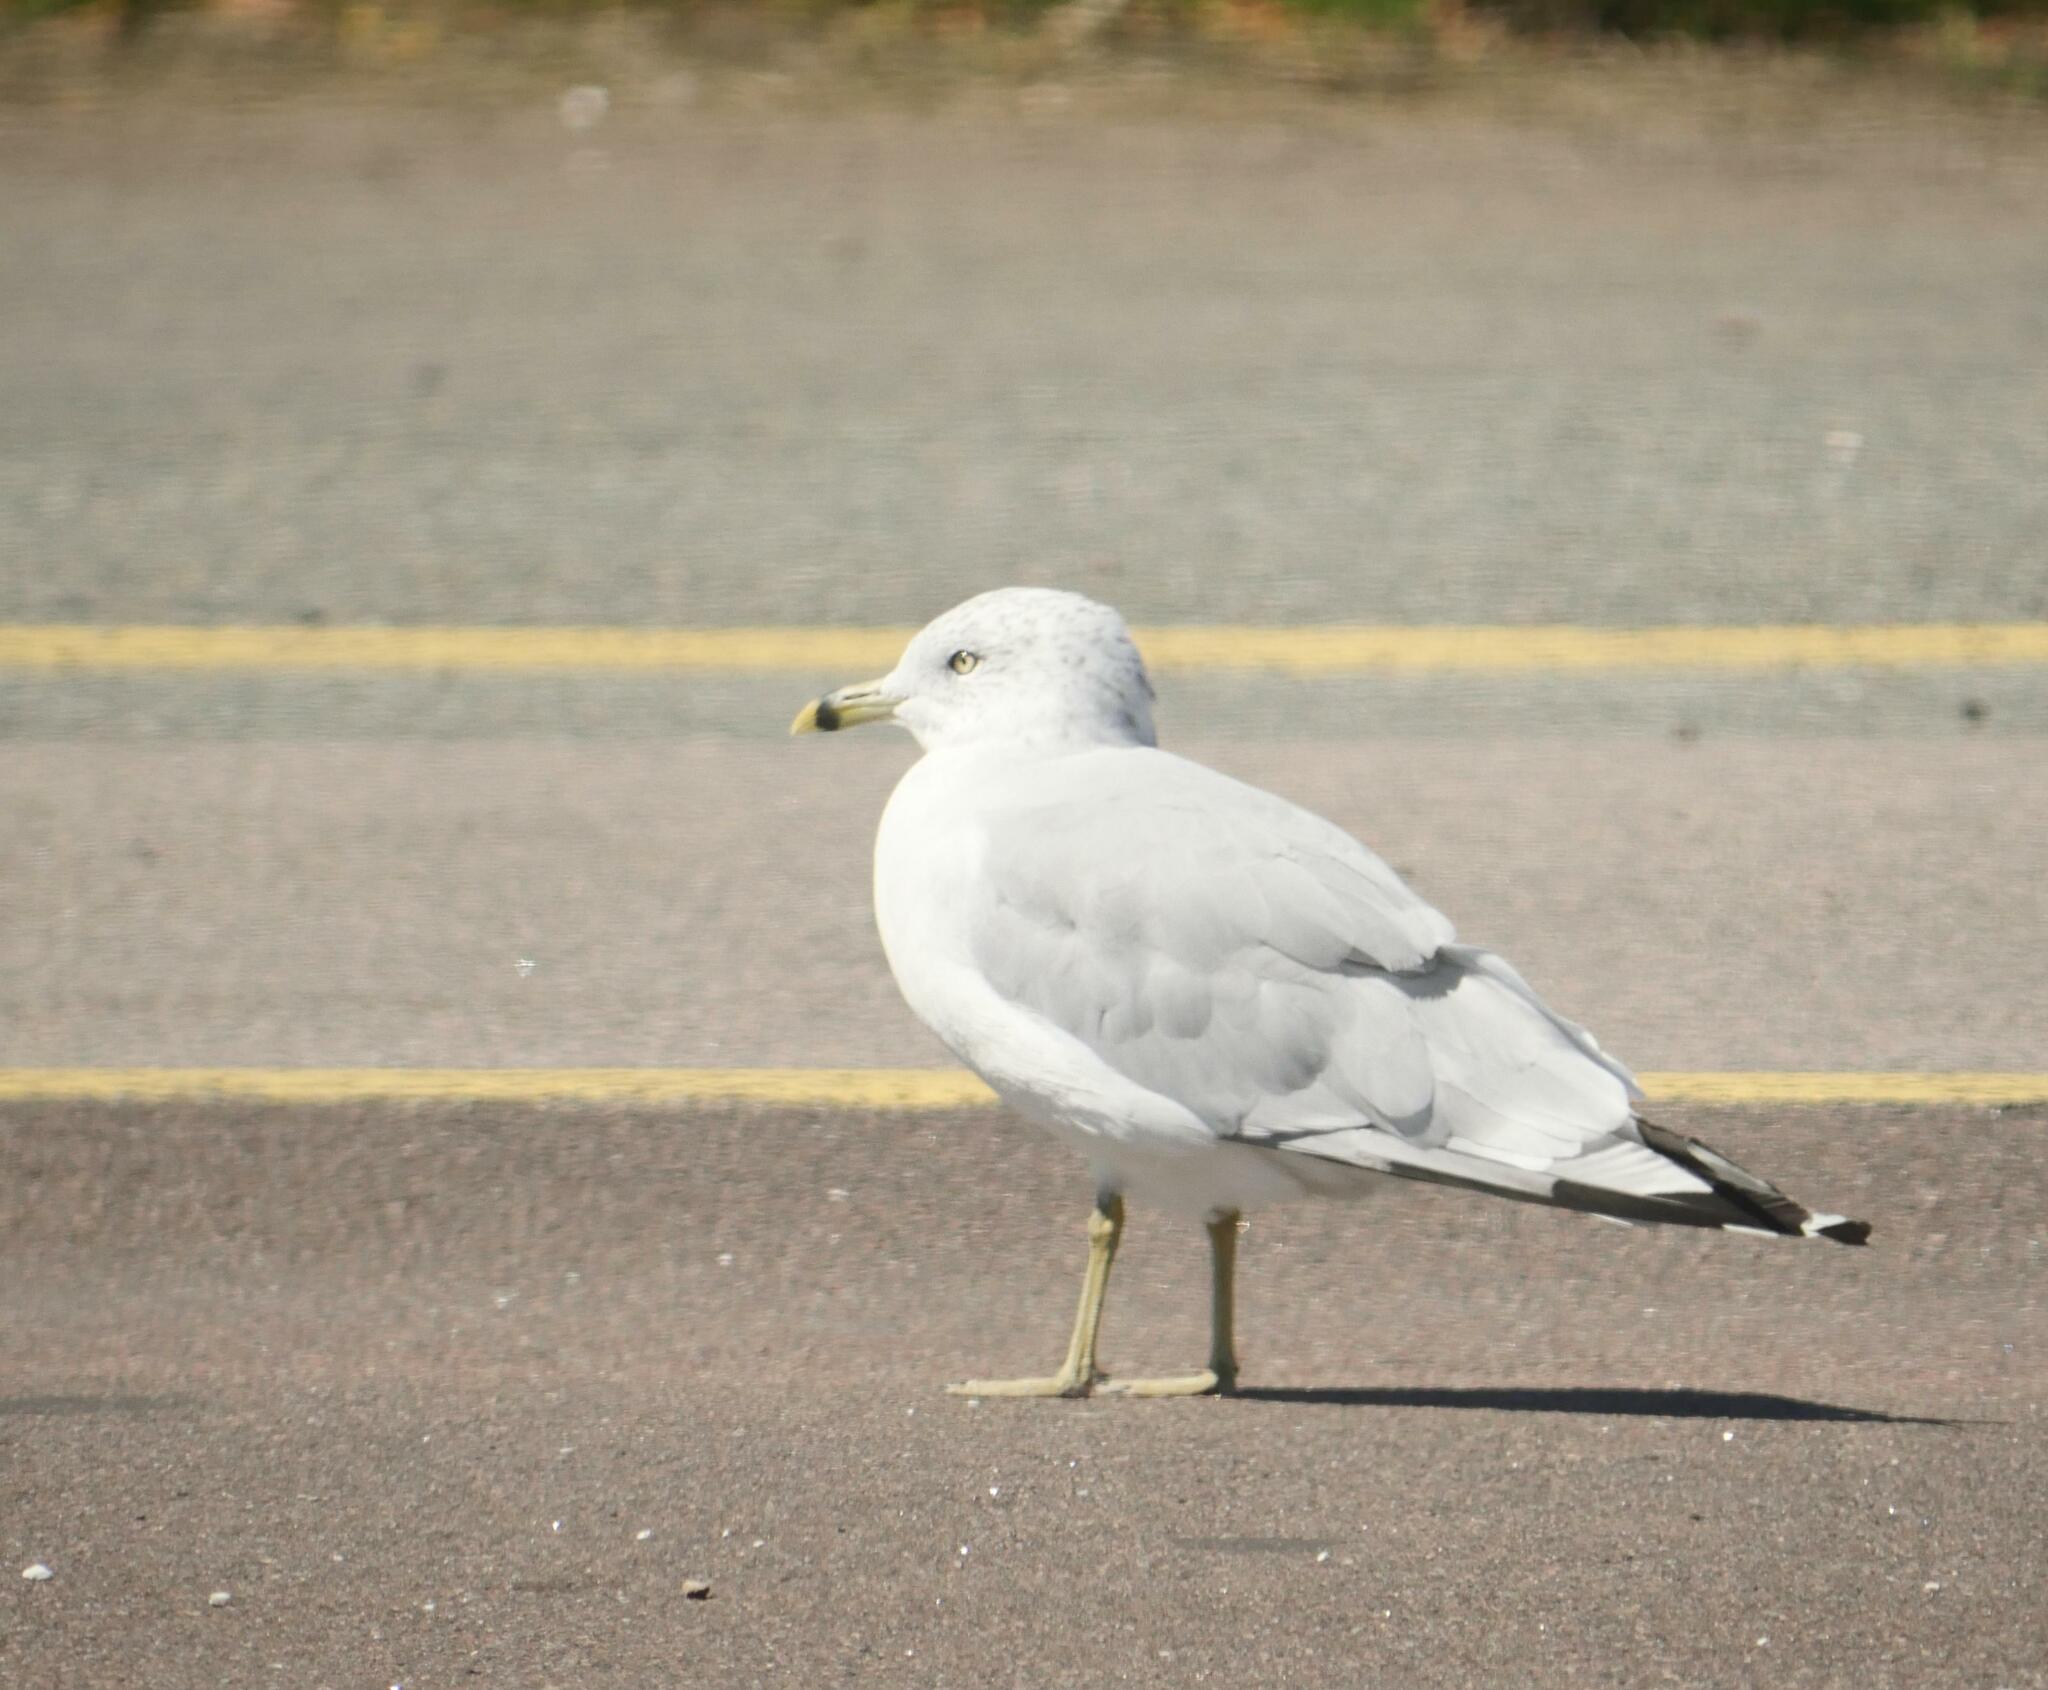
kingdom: Animalia
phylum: Chordata
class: Aves
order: Charadriiformes
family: Laridae
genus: Larus
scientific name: Larus delawarensis
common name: Ring-billed gull
